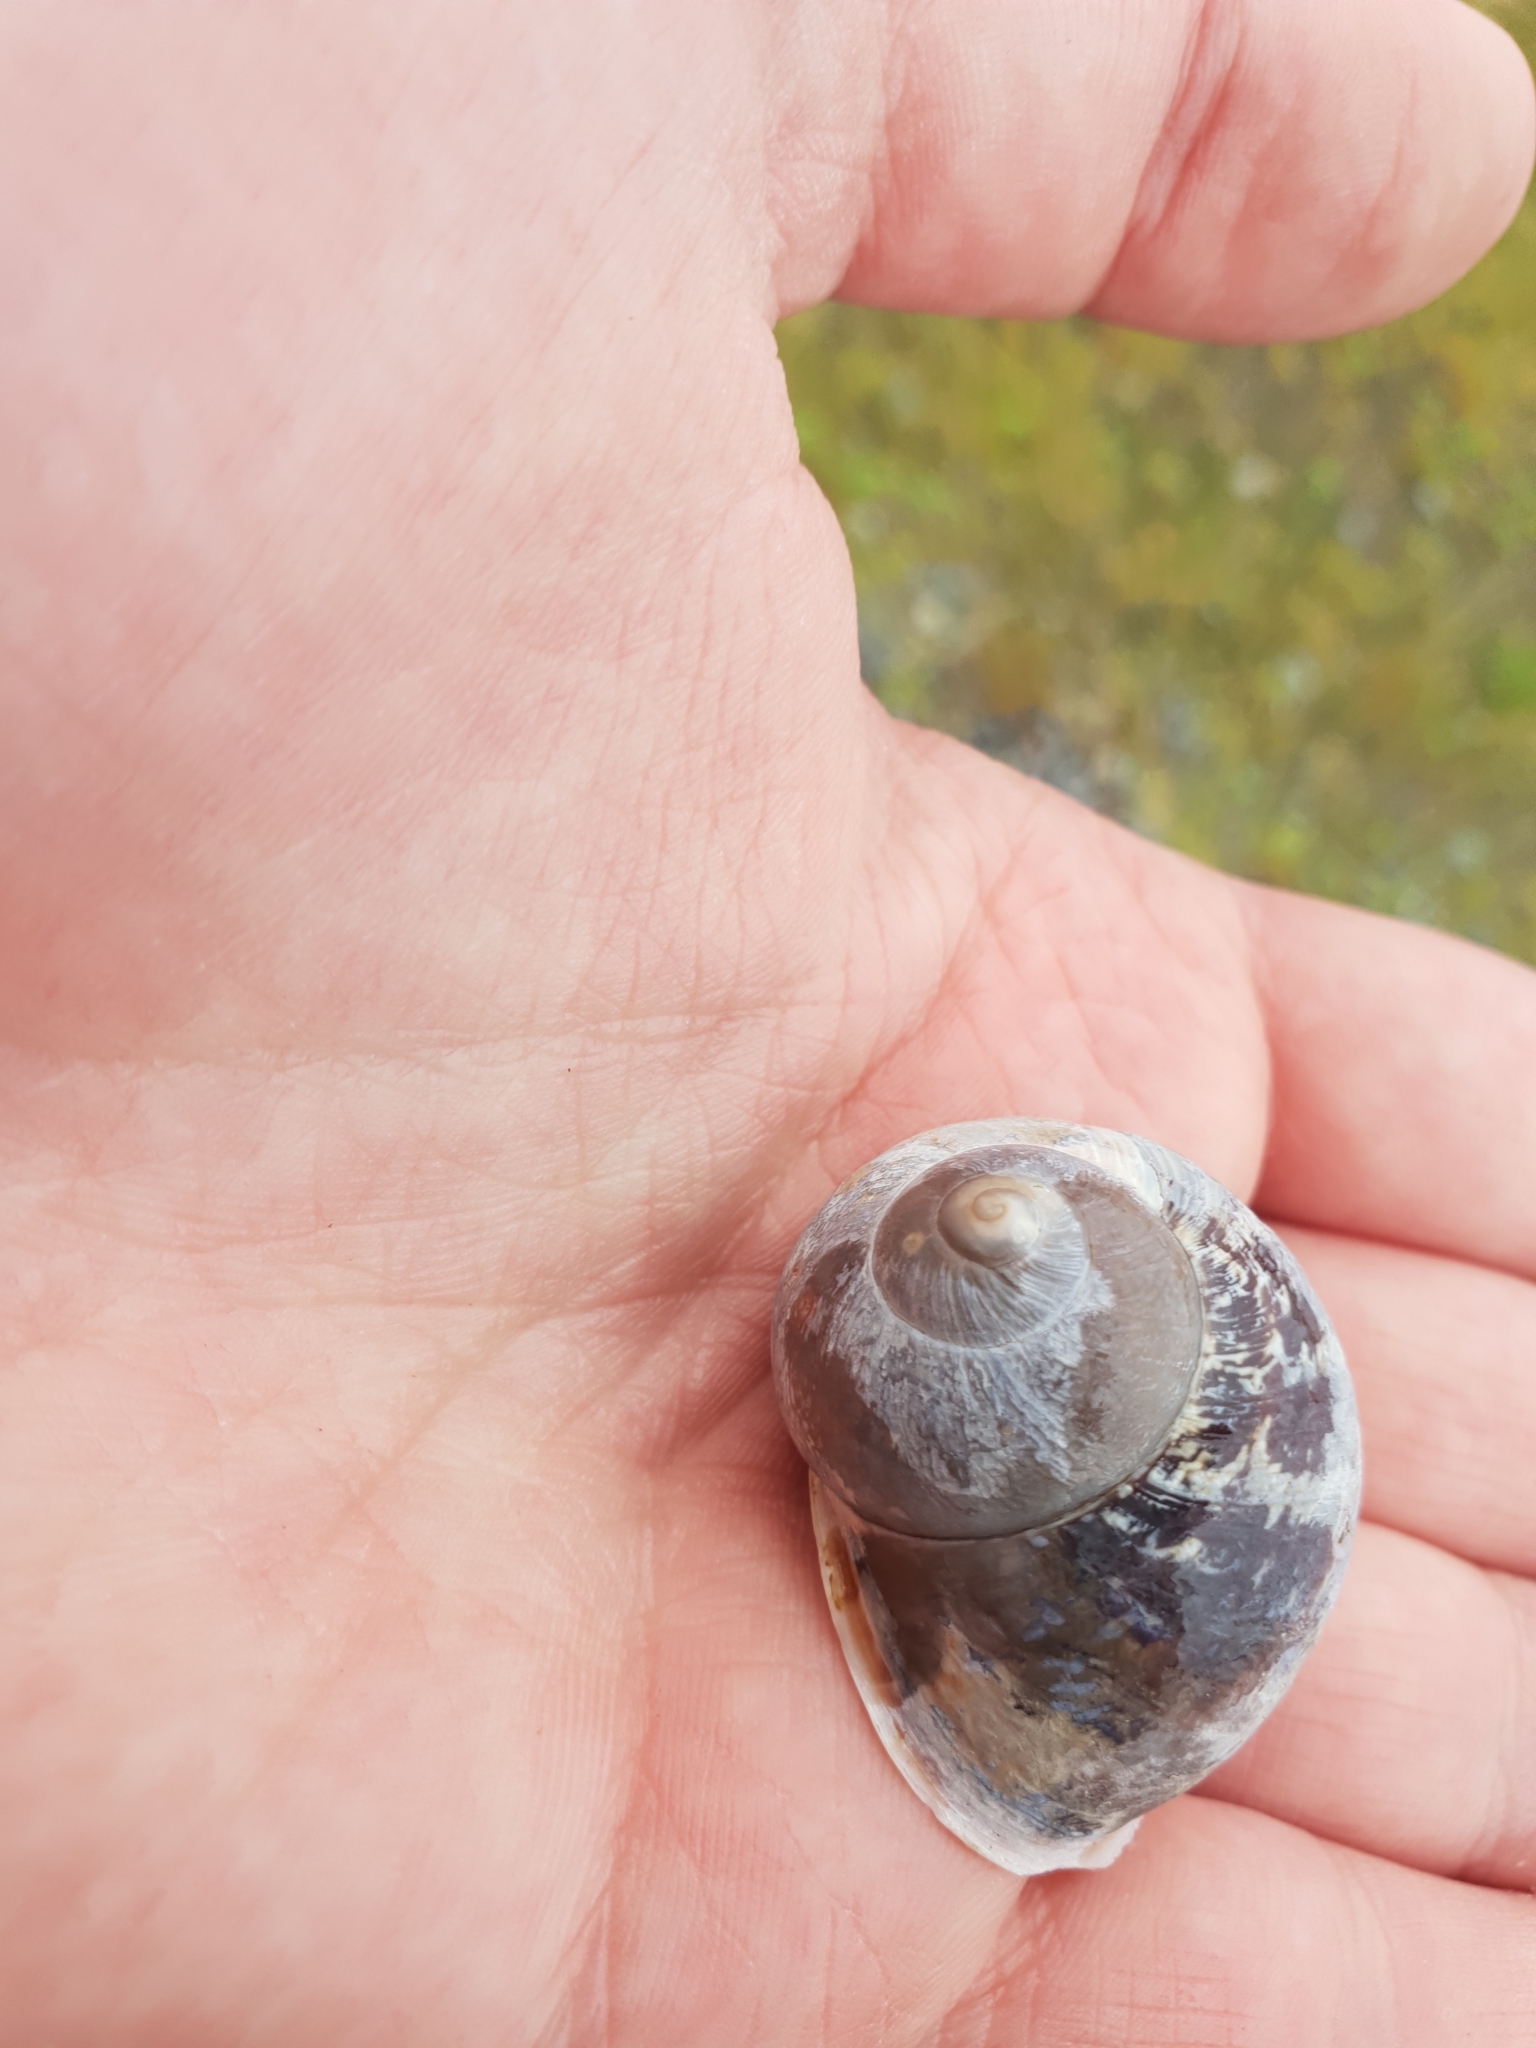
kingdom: Animalia
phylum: Mollusca
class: Gastropoda
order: Stylommatophora
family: Helicidae
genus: Cornu
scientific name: Cornu aspersum
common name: Brown garden snail
